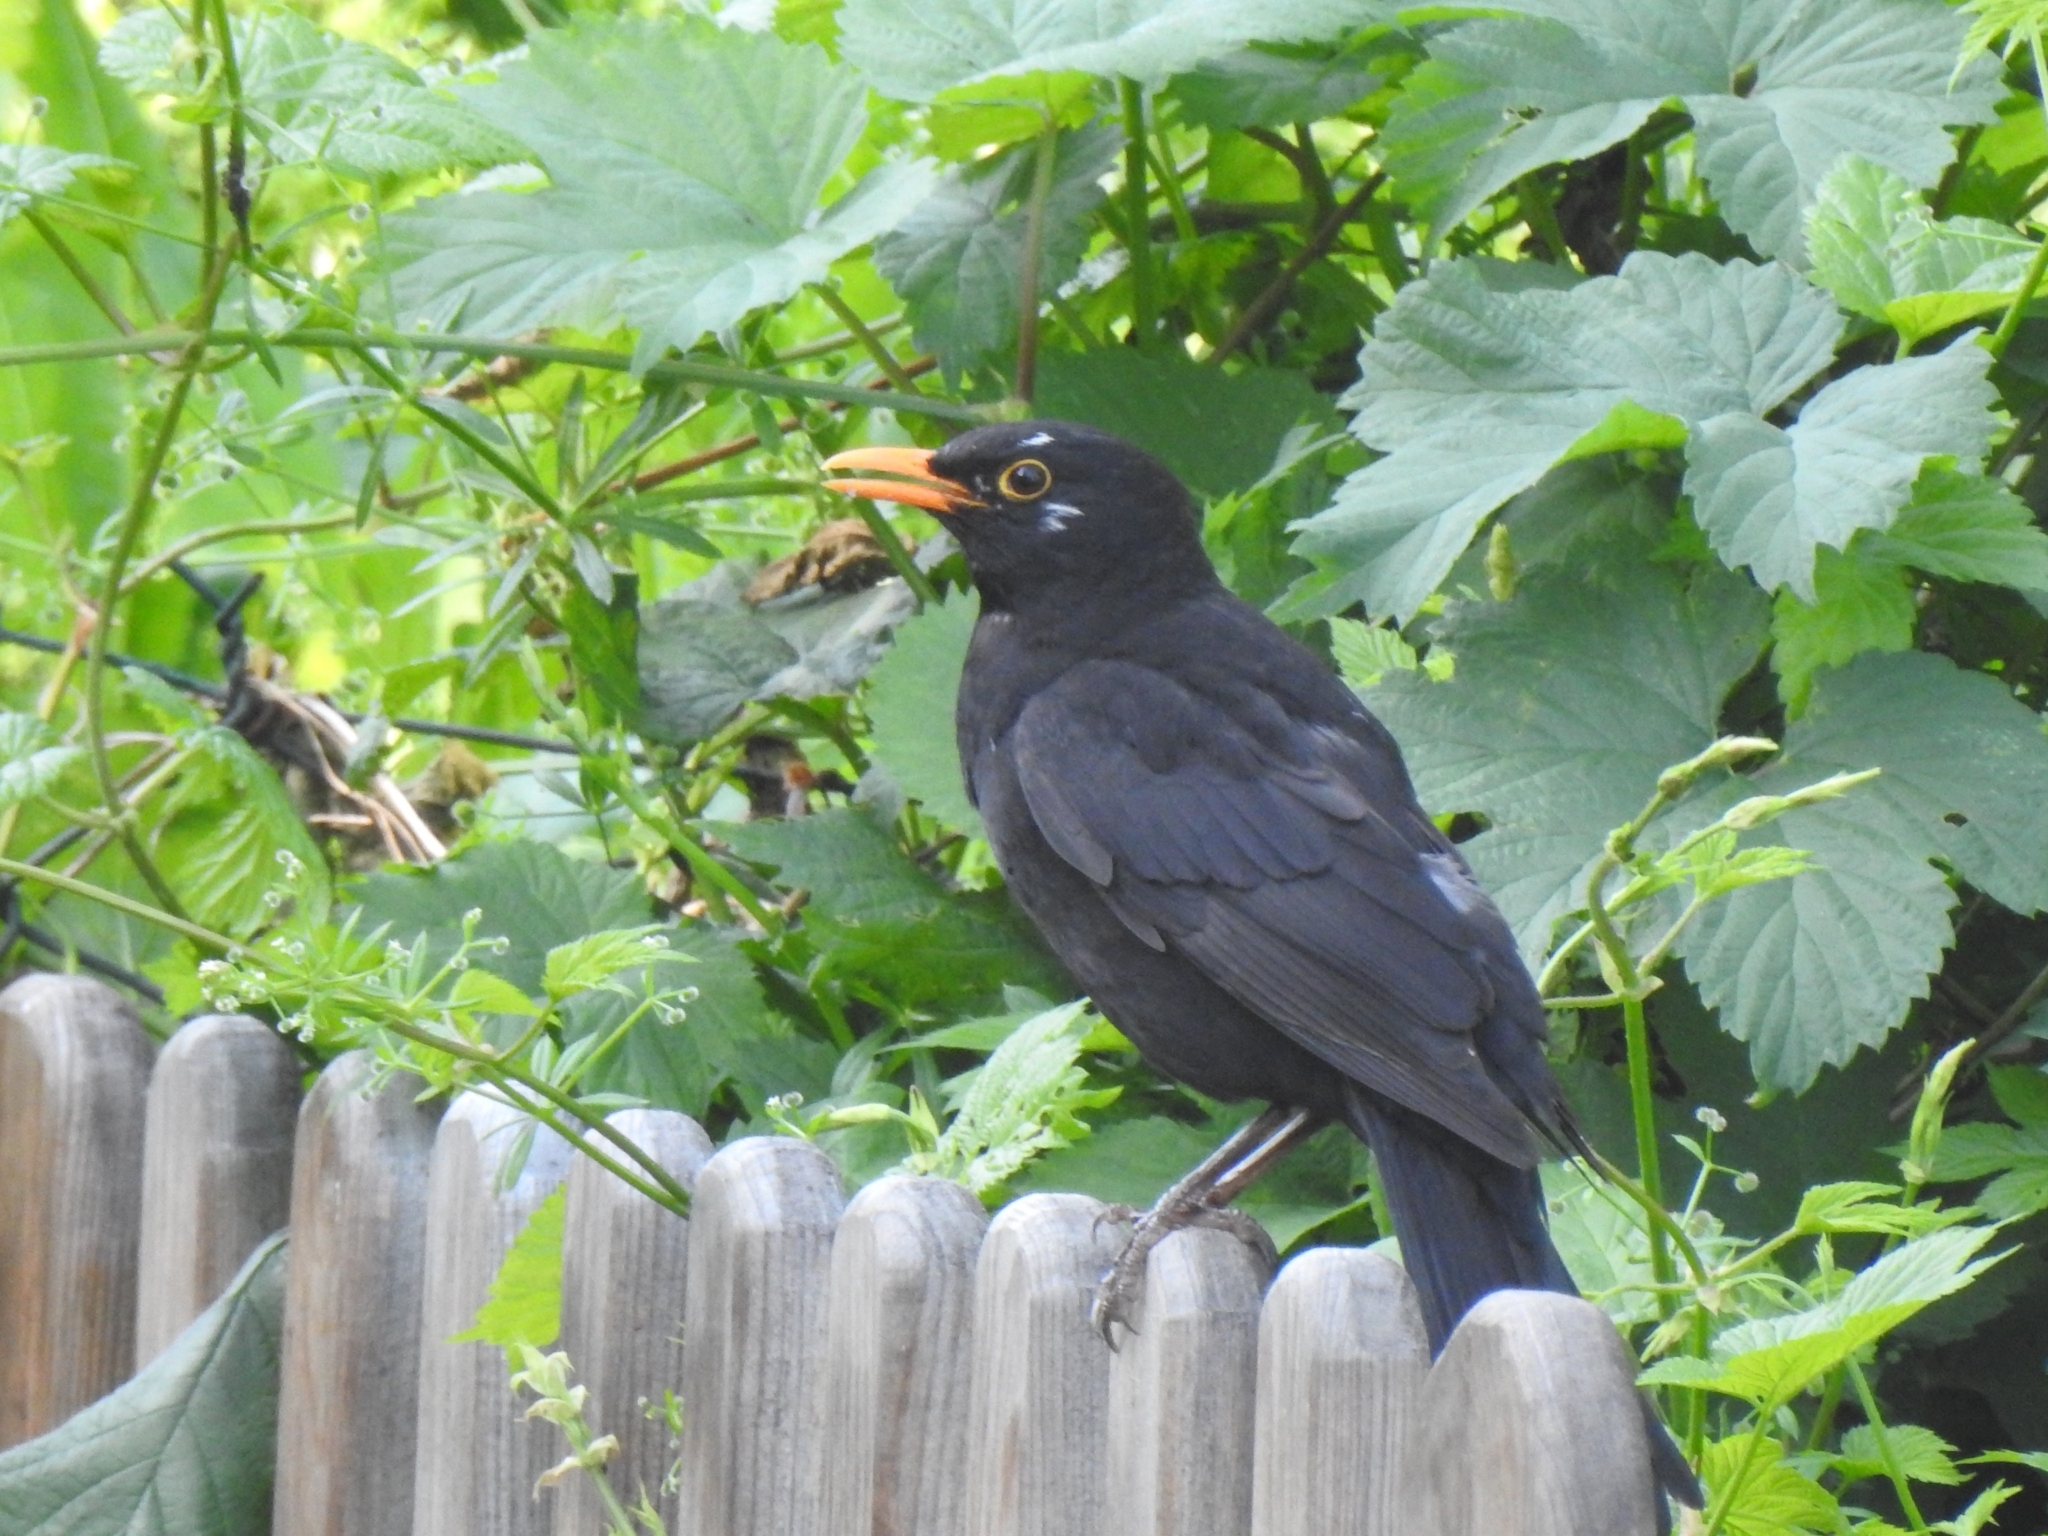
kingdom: Animalia
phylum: Chordata
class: Aves
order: Passeriformes
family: Turdidae
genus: Turdus
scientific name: Turdus merula
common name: Common blackbird
